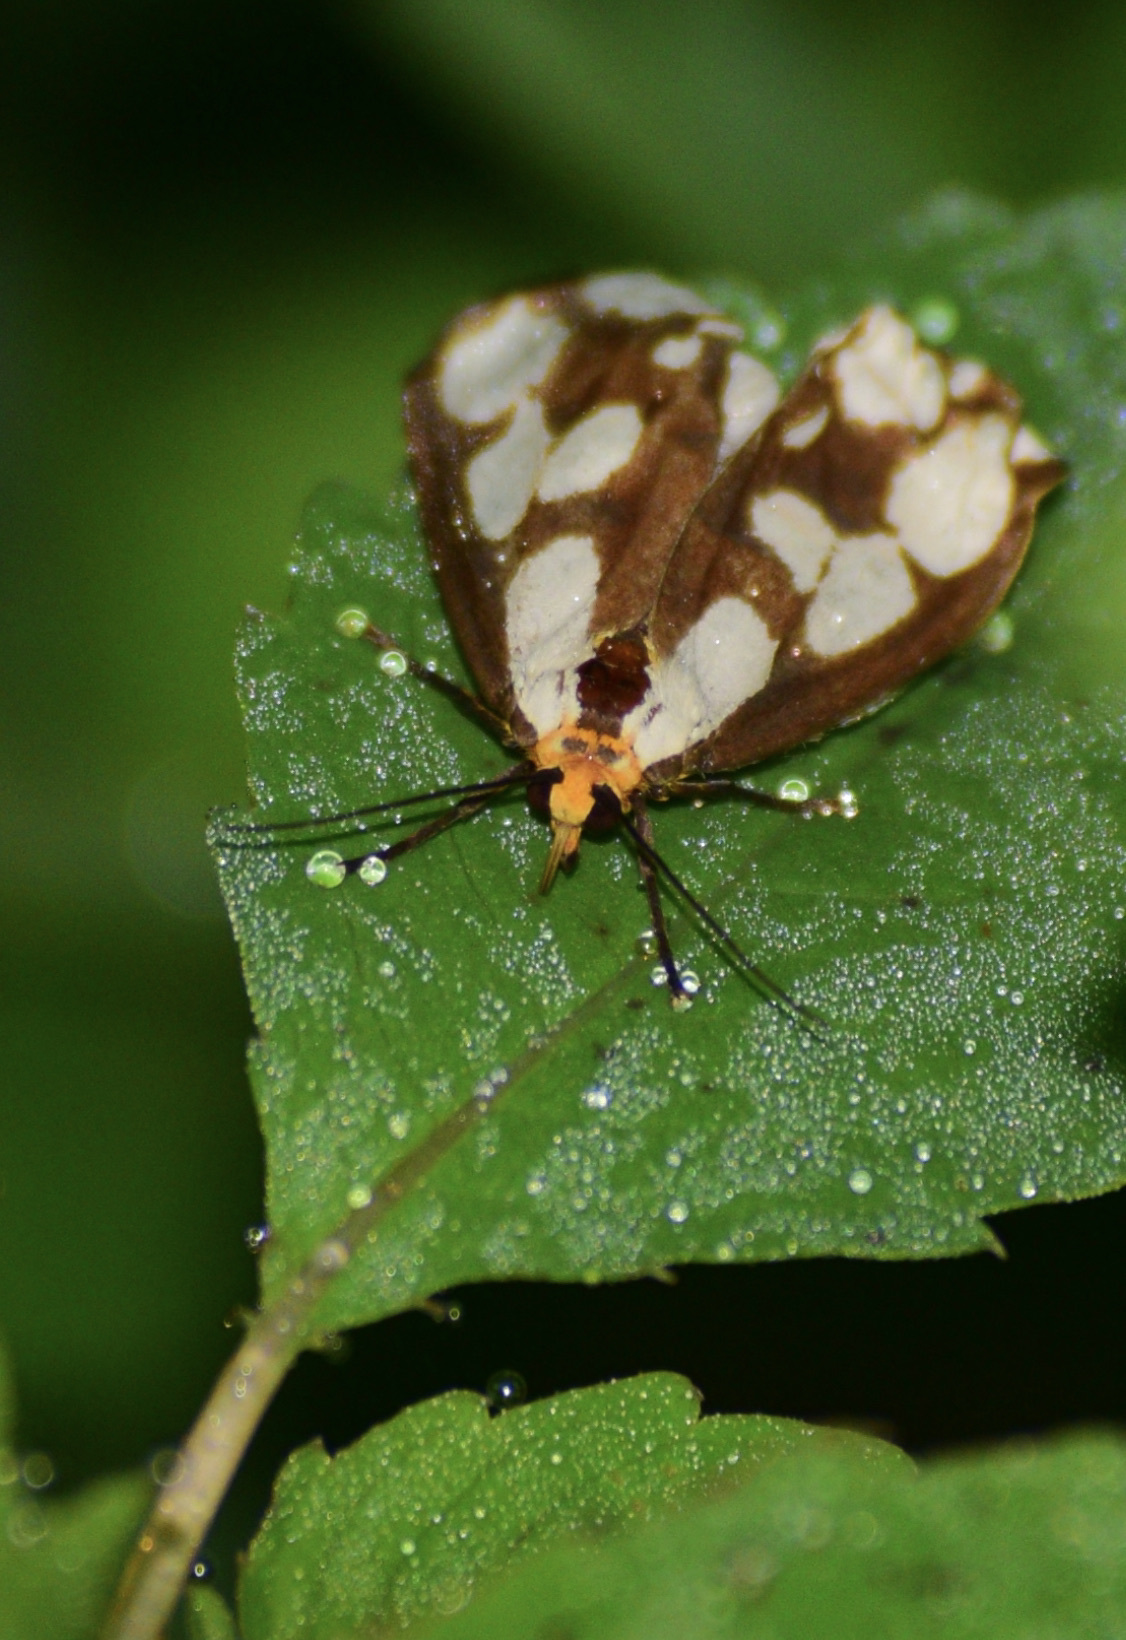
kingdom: Animalia
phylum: Arthropoda
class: Insecta
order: Lepidoptera
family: Erebidae
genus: Haploa
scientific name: Haploa confusa
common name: Confused haploa moth
